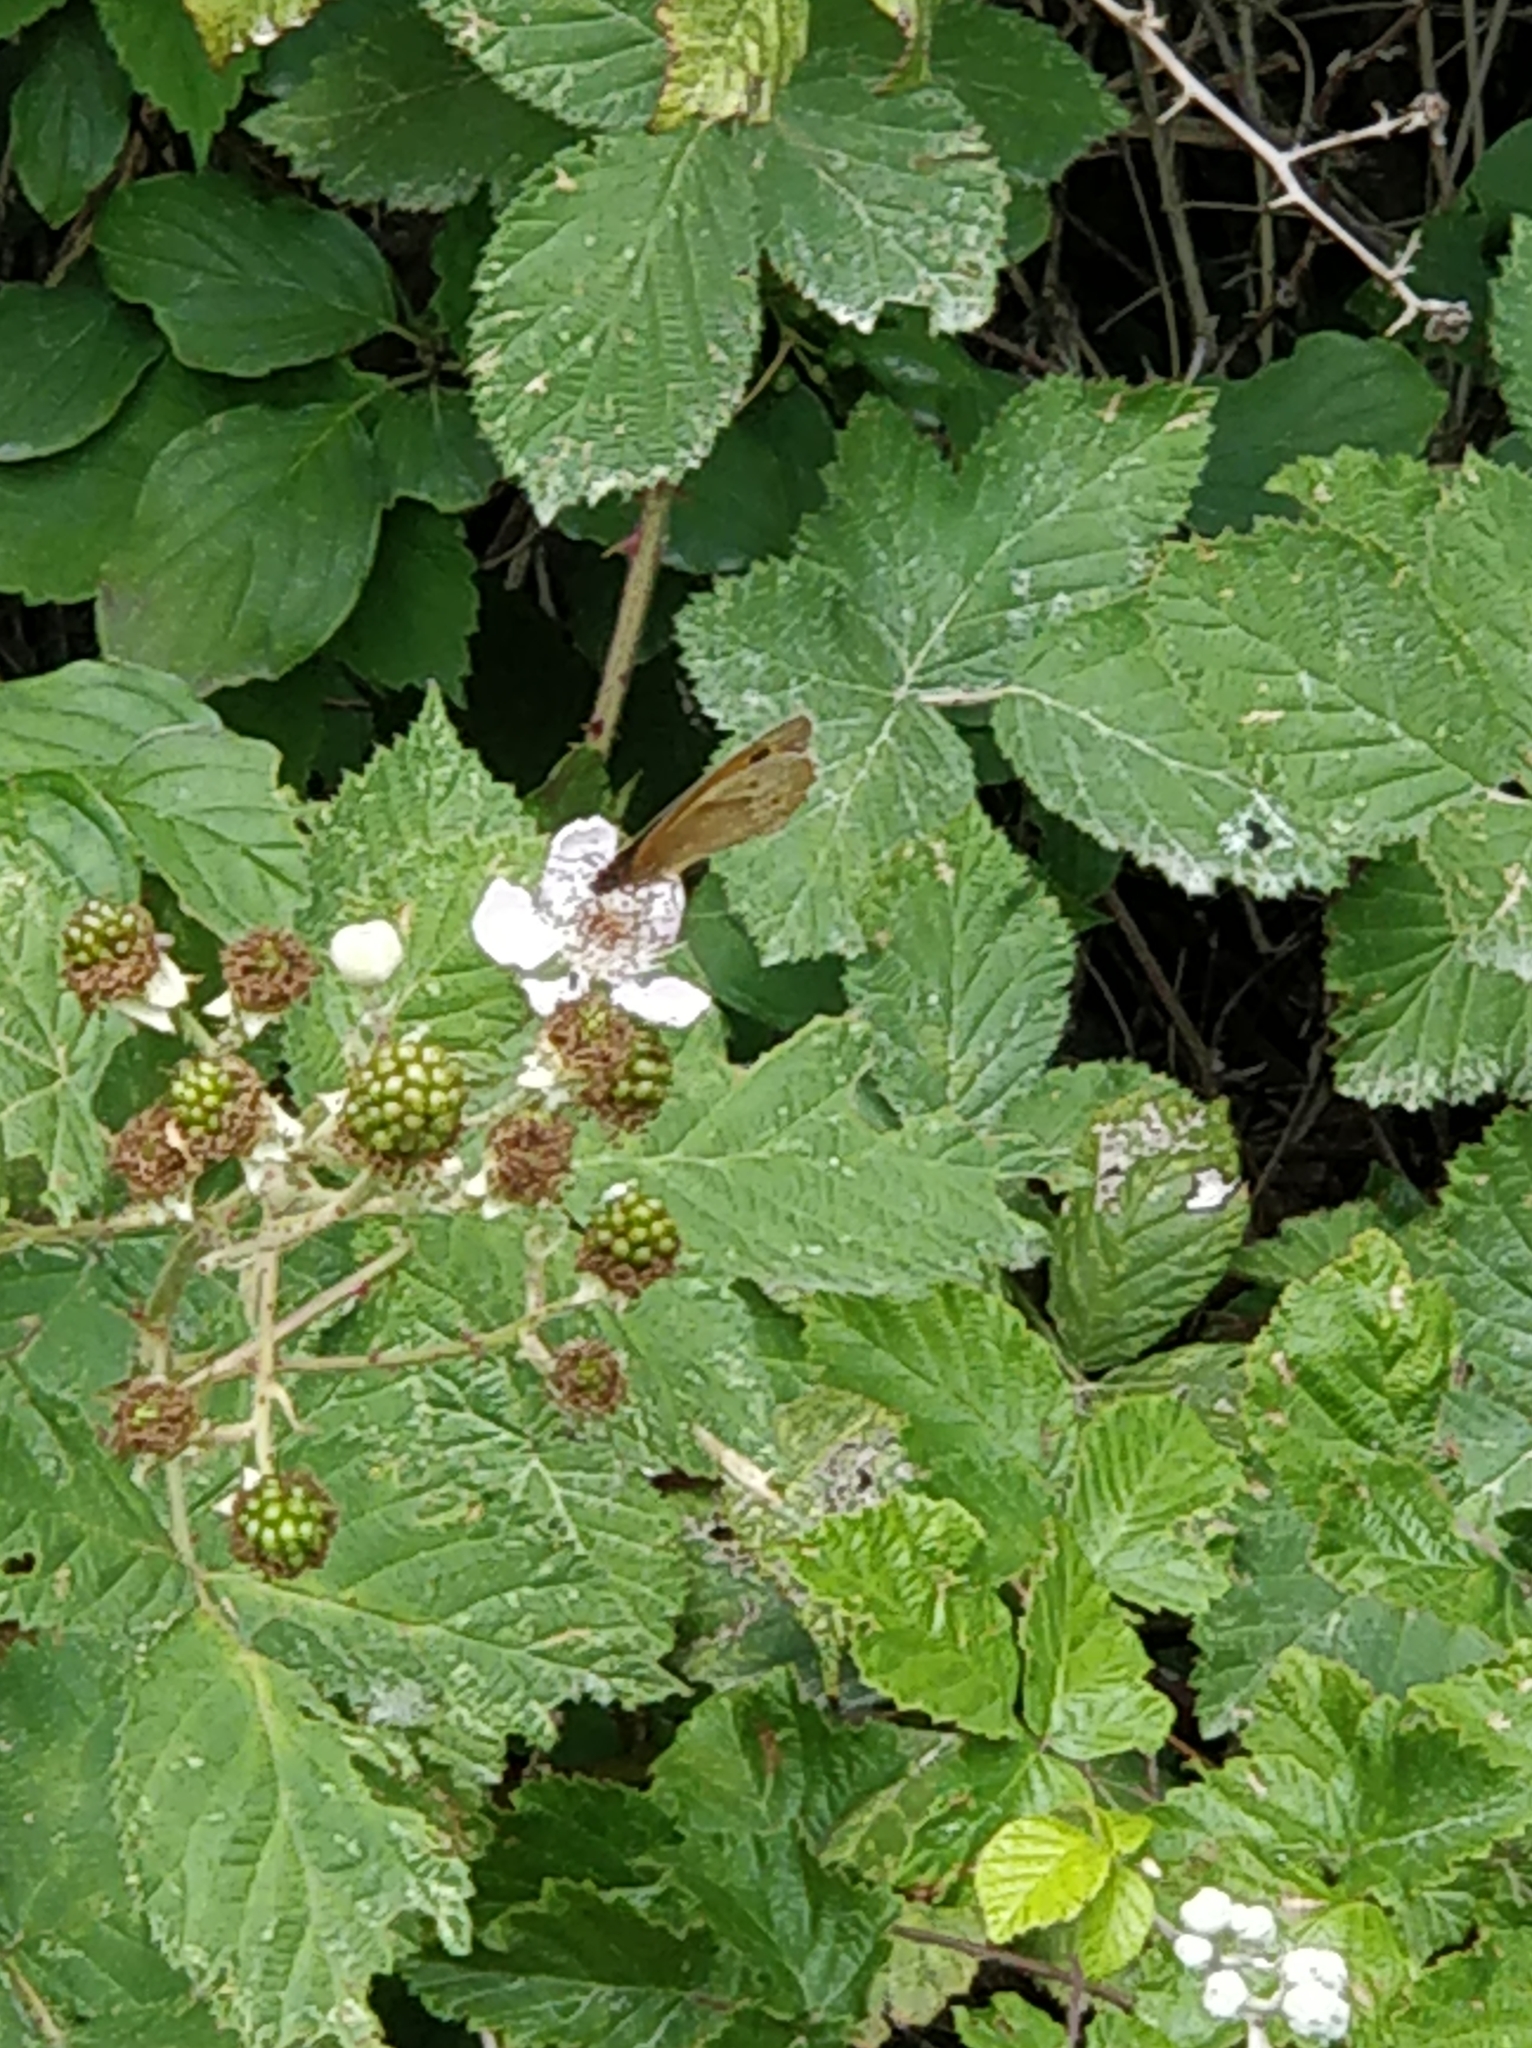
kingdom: Animalia
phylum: Arthropoda
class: Insecta
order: Lepidoptera
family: Nymphalidae
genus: Maniola
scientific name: Maniola jurtina
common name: Meadow brown
